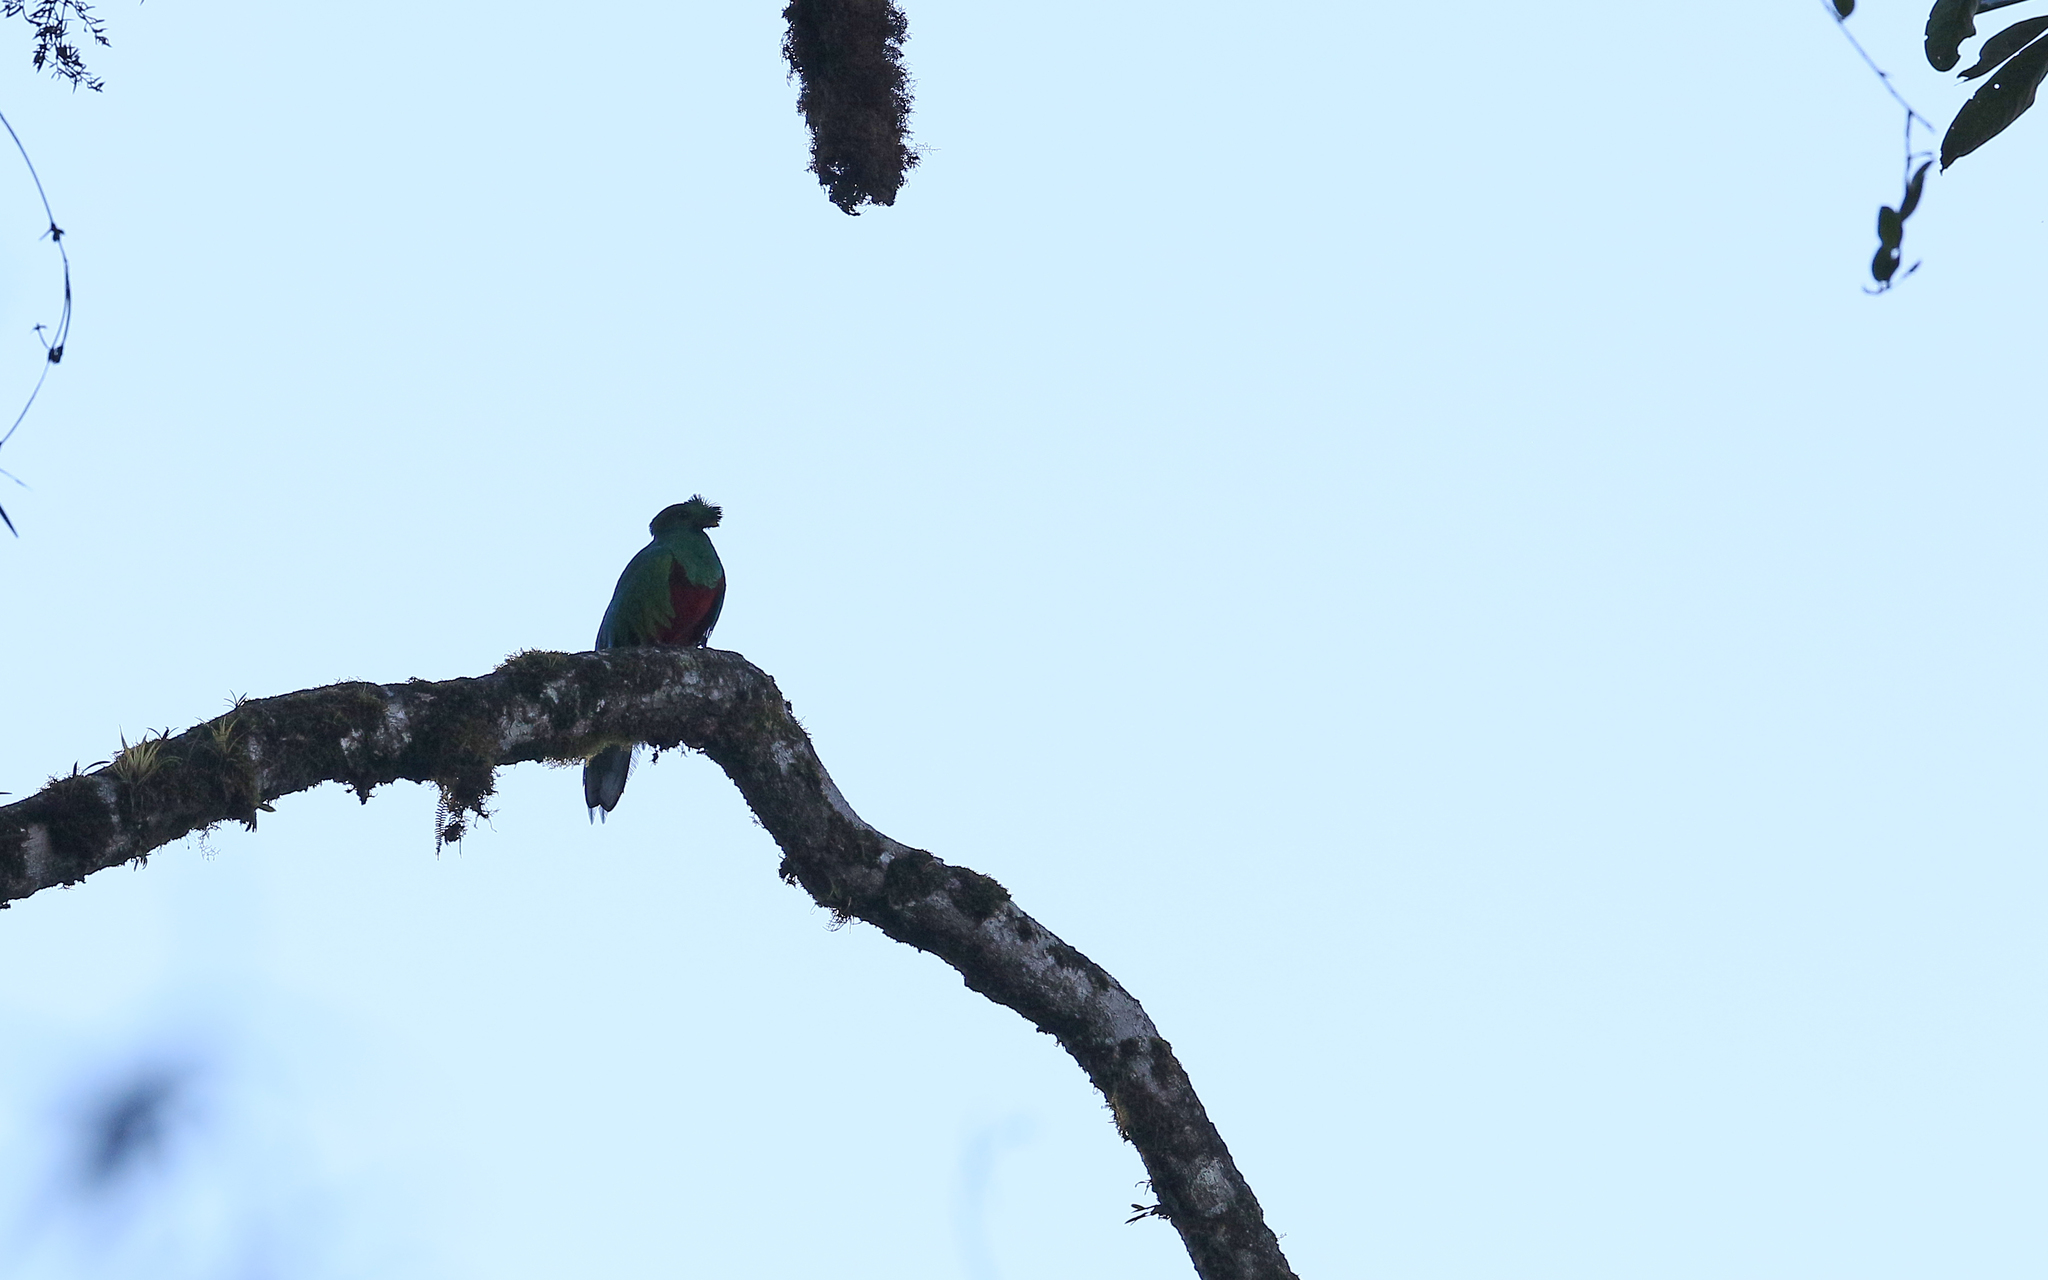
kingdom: Animalia
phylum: Chordata
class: Aves
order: Trogoniformes
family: Trogonidae
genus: Pharomachrus
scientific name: Pharomachrus antisianus
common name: Crested quetzal
